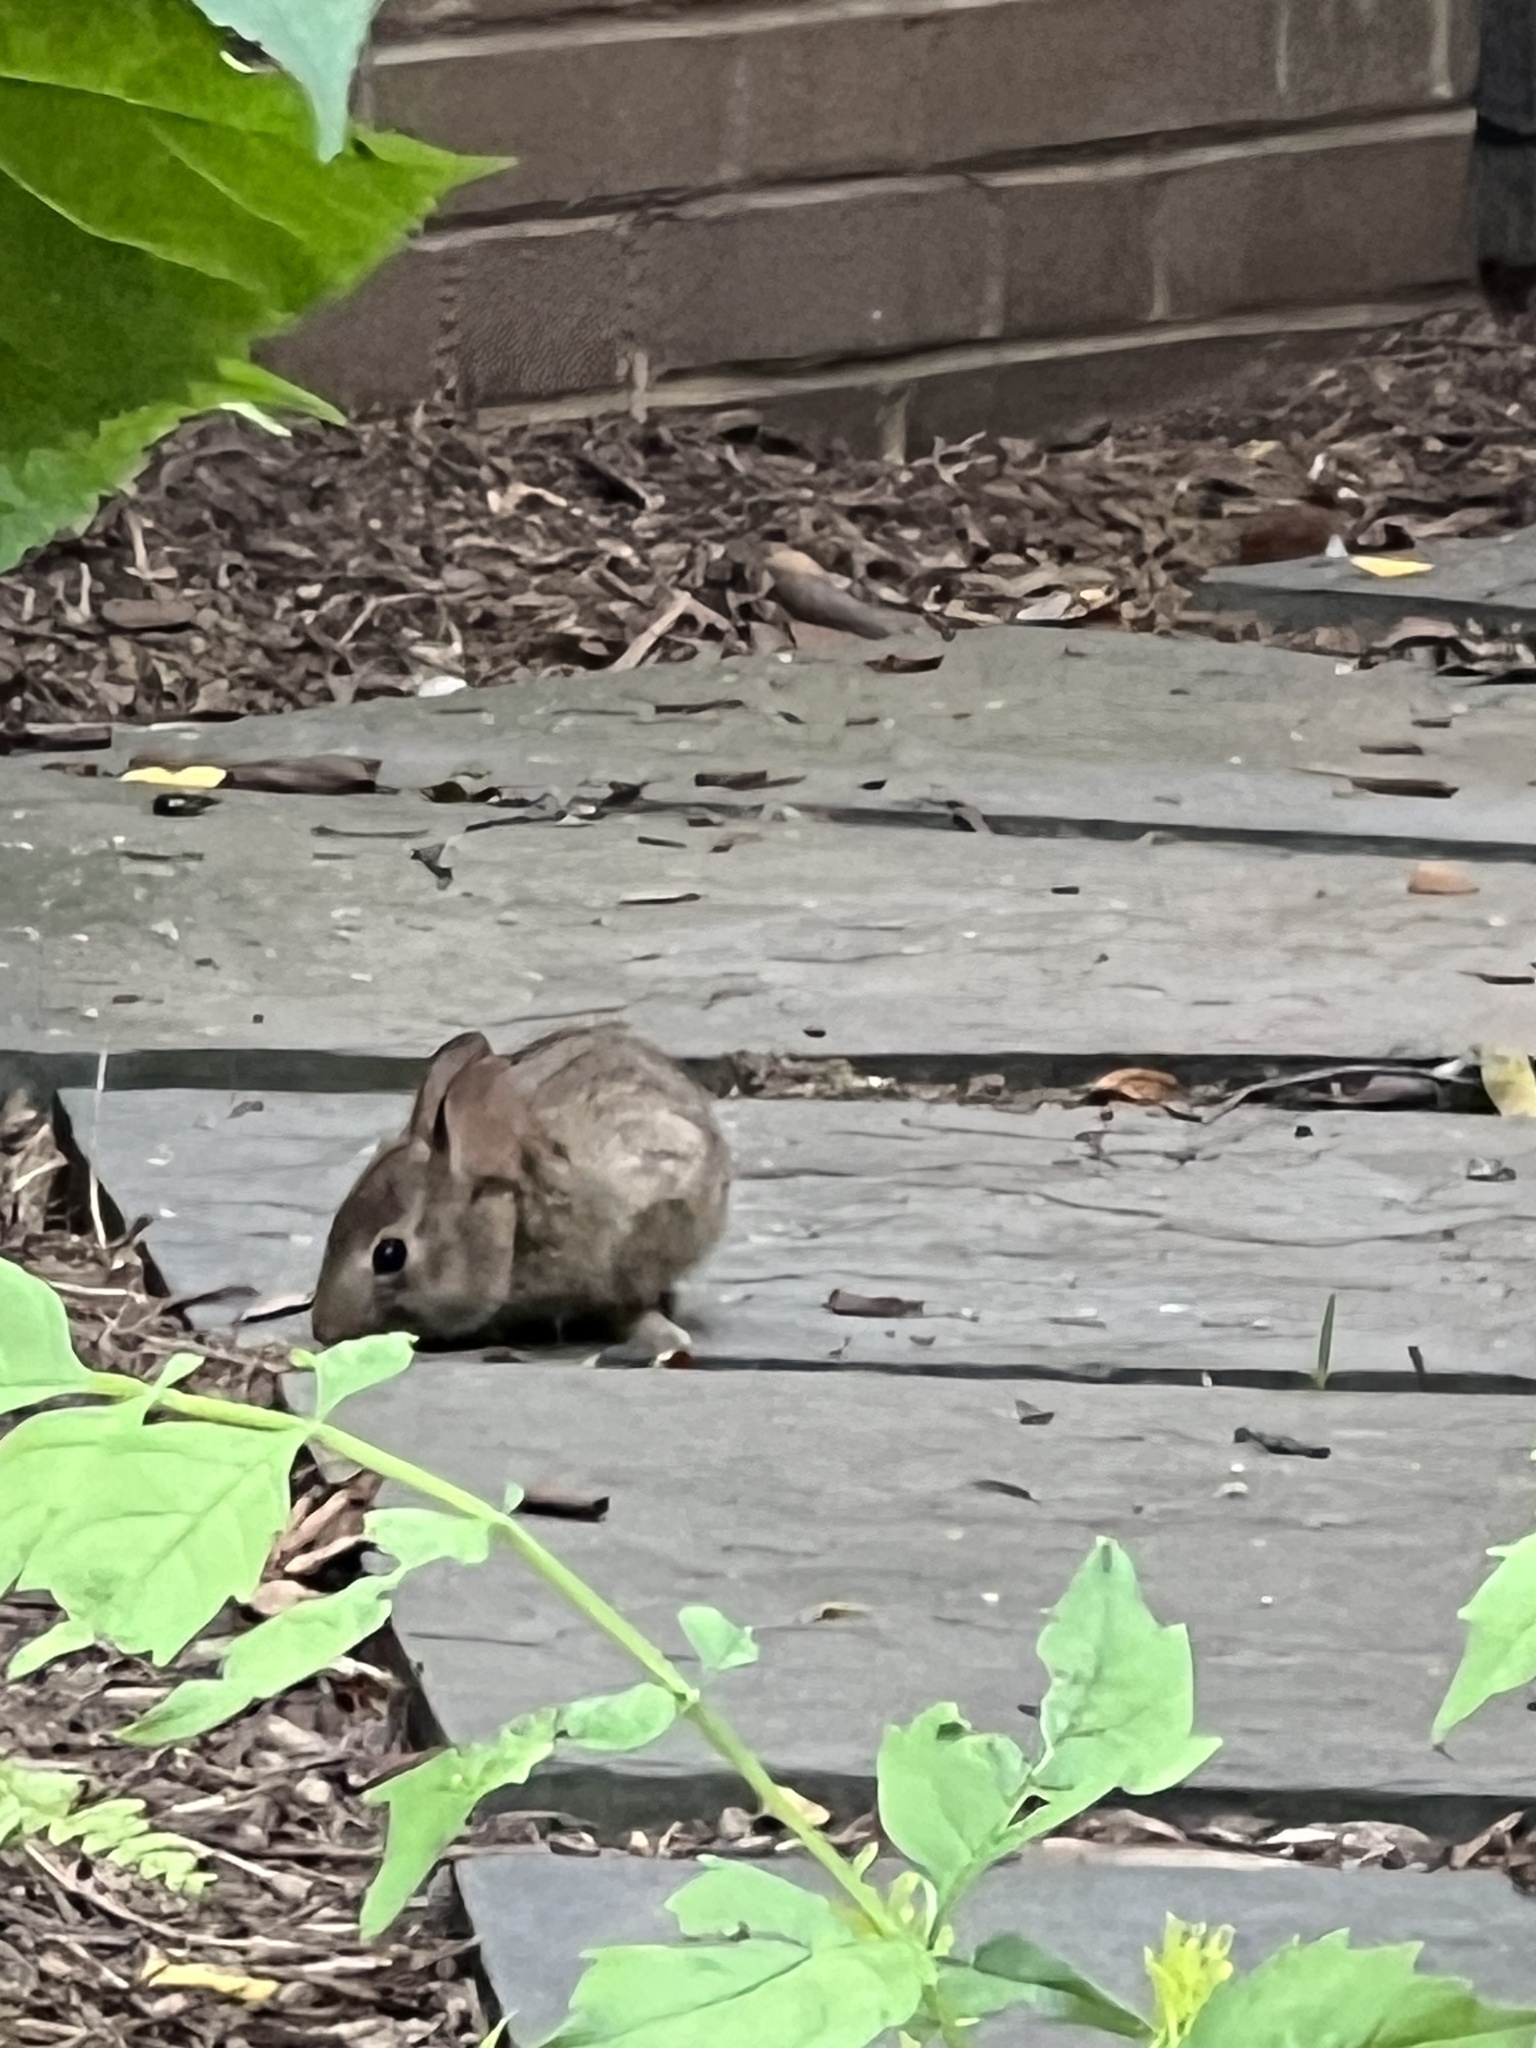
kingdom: Animalia
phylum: Chordata
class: Mammalia
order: Lagomorpha
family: Leporidae
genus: Sylvilagus
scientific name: Sylvilagus floridanus
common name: Eastern cottontail
